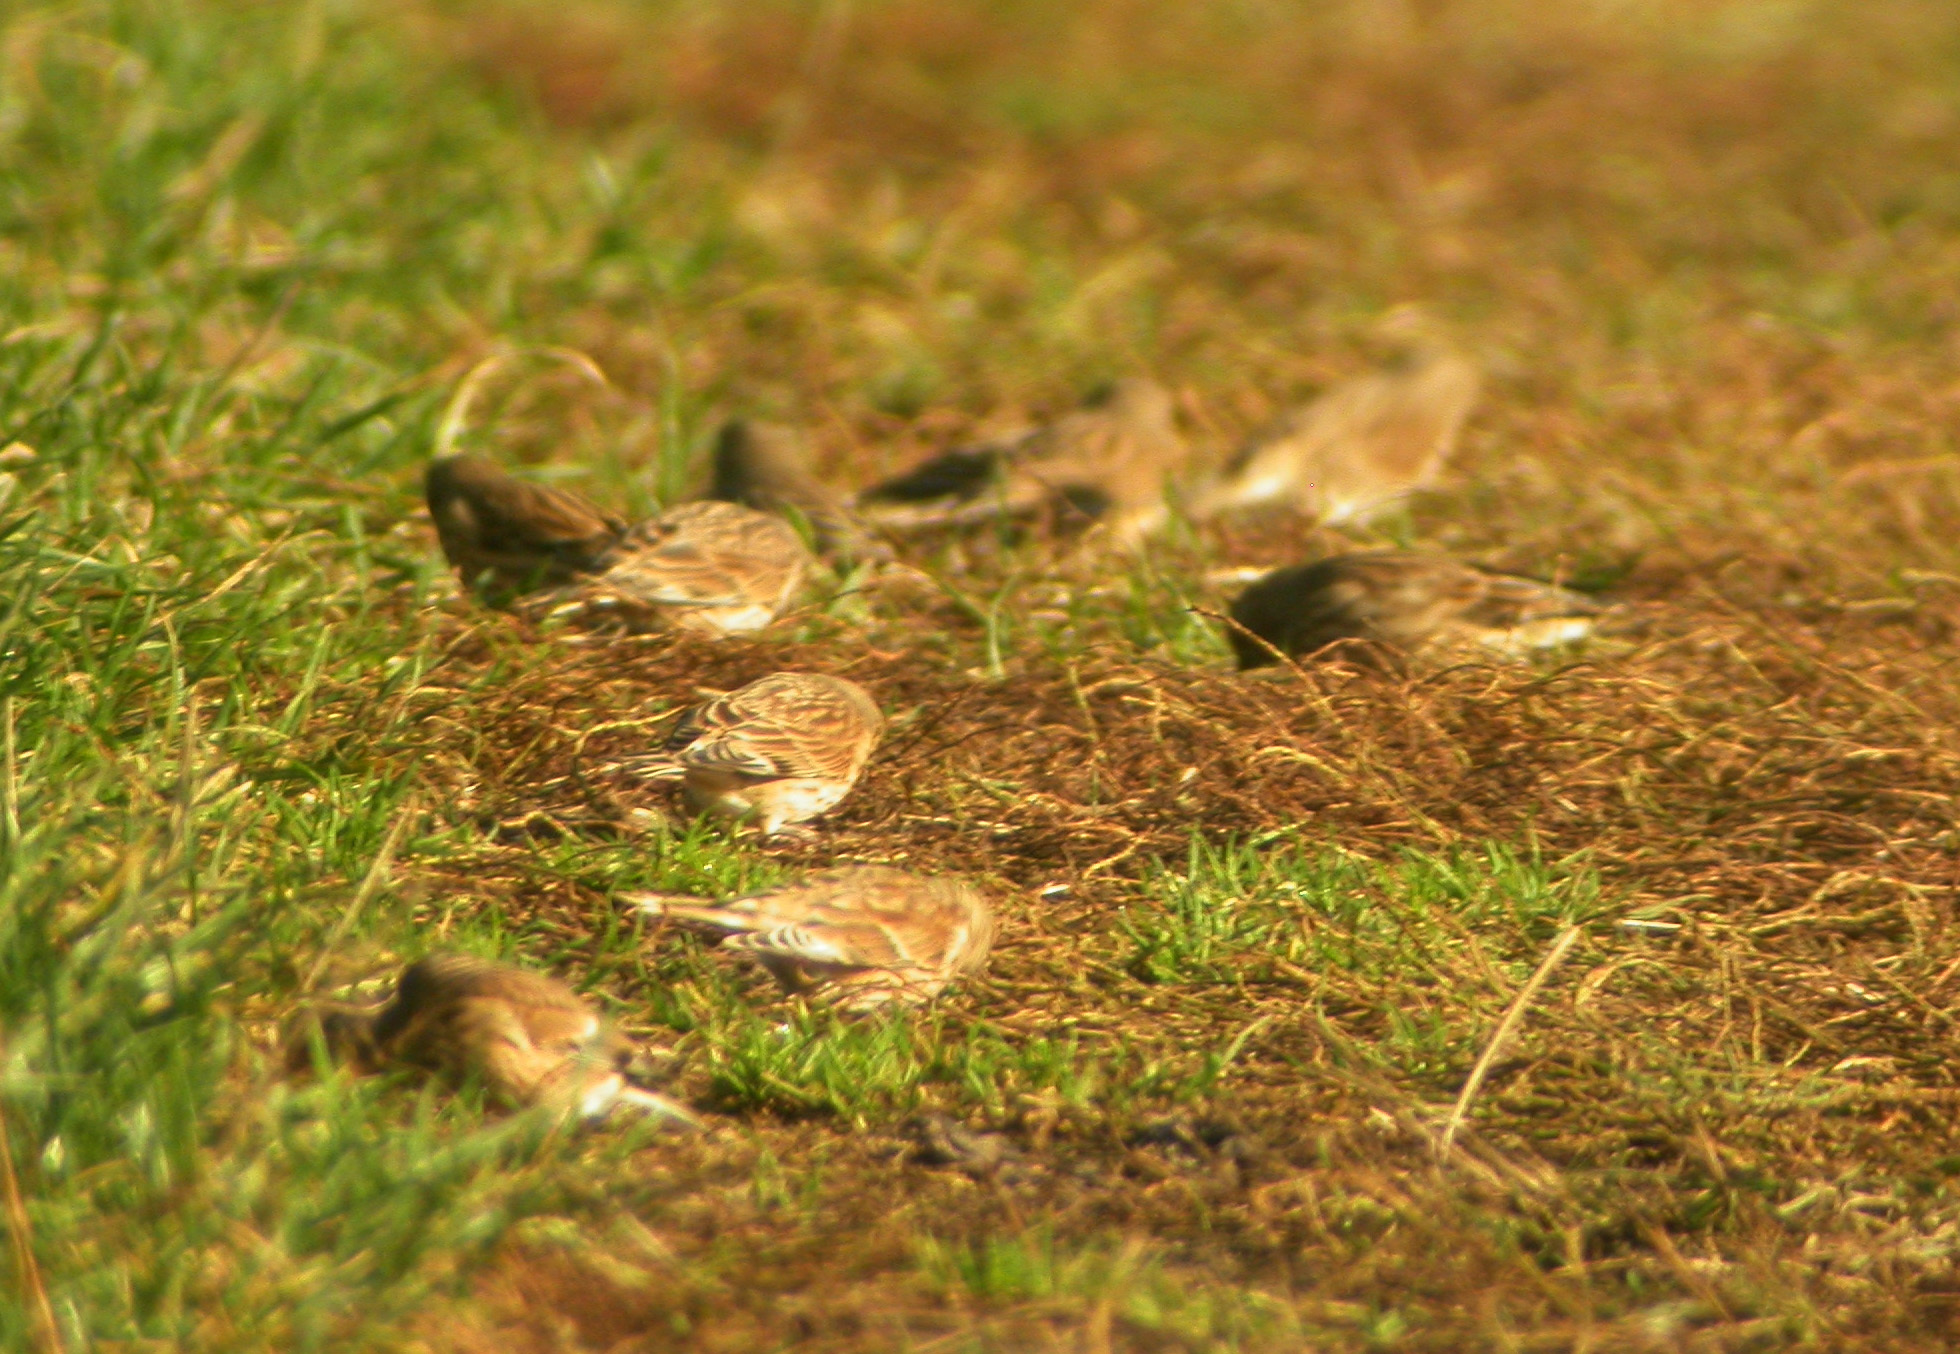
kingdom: Animalia
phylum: Chordata
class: Aves
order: Passeriformes
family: Fringillidae
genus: Linaria
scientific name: Linaria cannabina
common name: Common linnet
